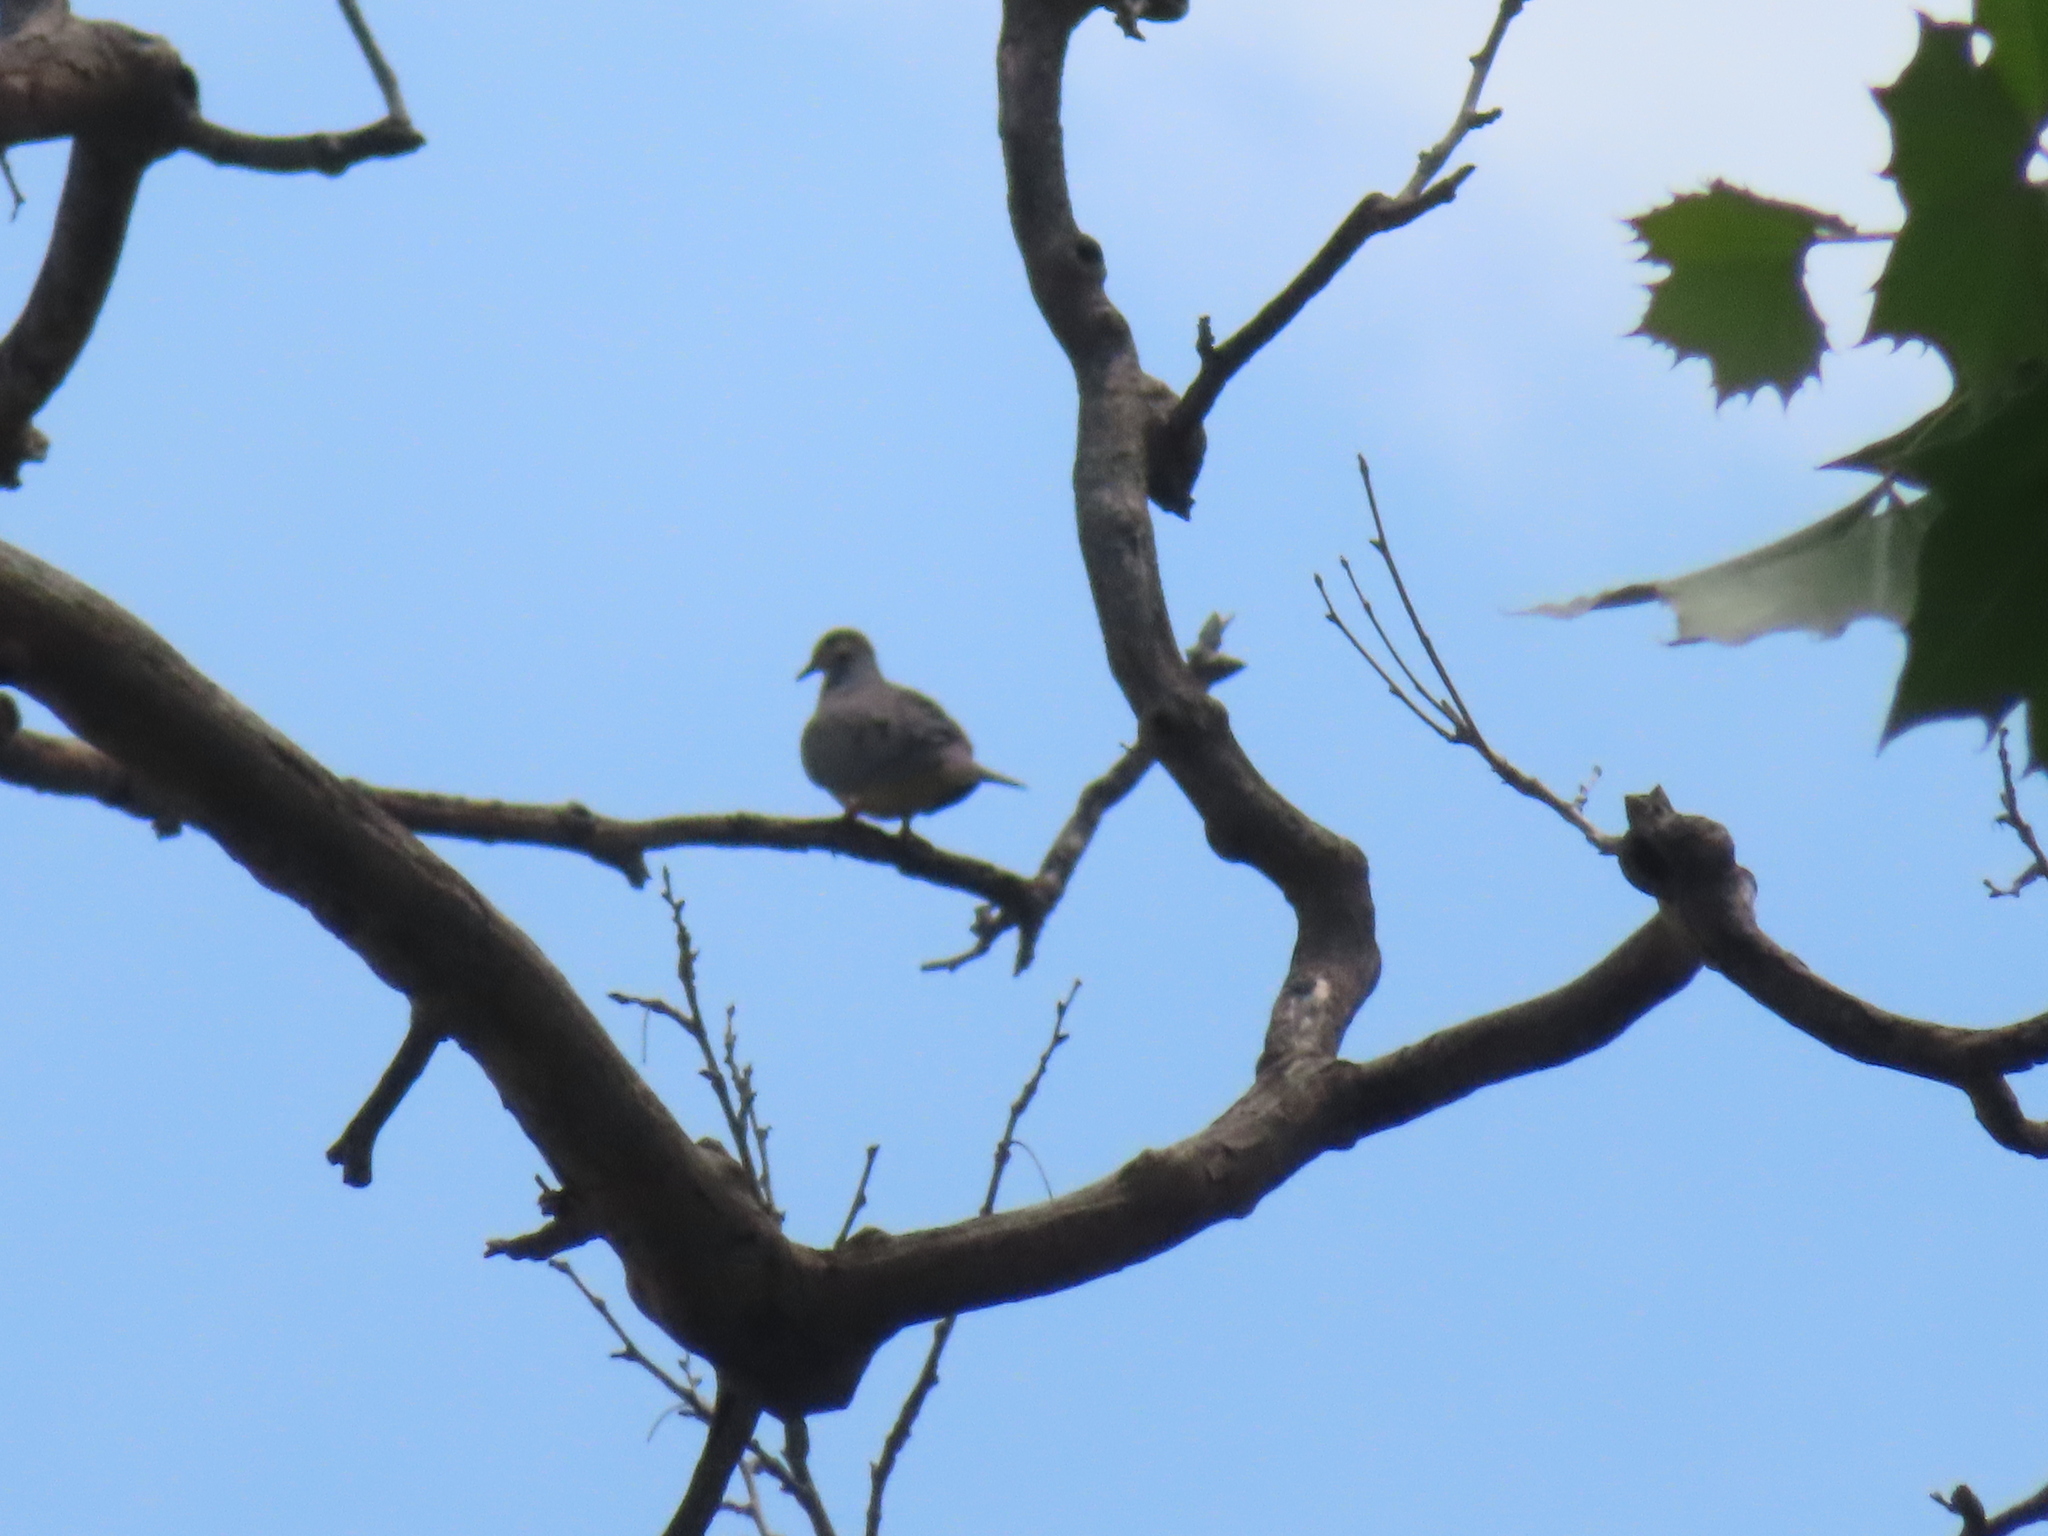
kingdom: Animalia
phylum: Chordata
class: Aves
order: Columbiformes
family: Columbidae
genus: Zenaida
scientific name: Zenaida macroura
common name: Mourning dove
